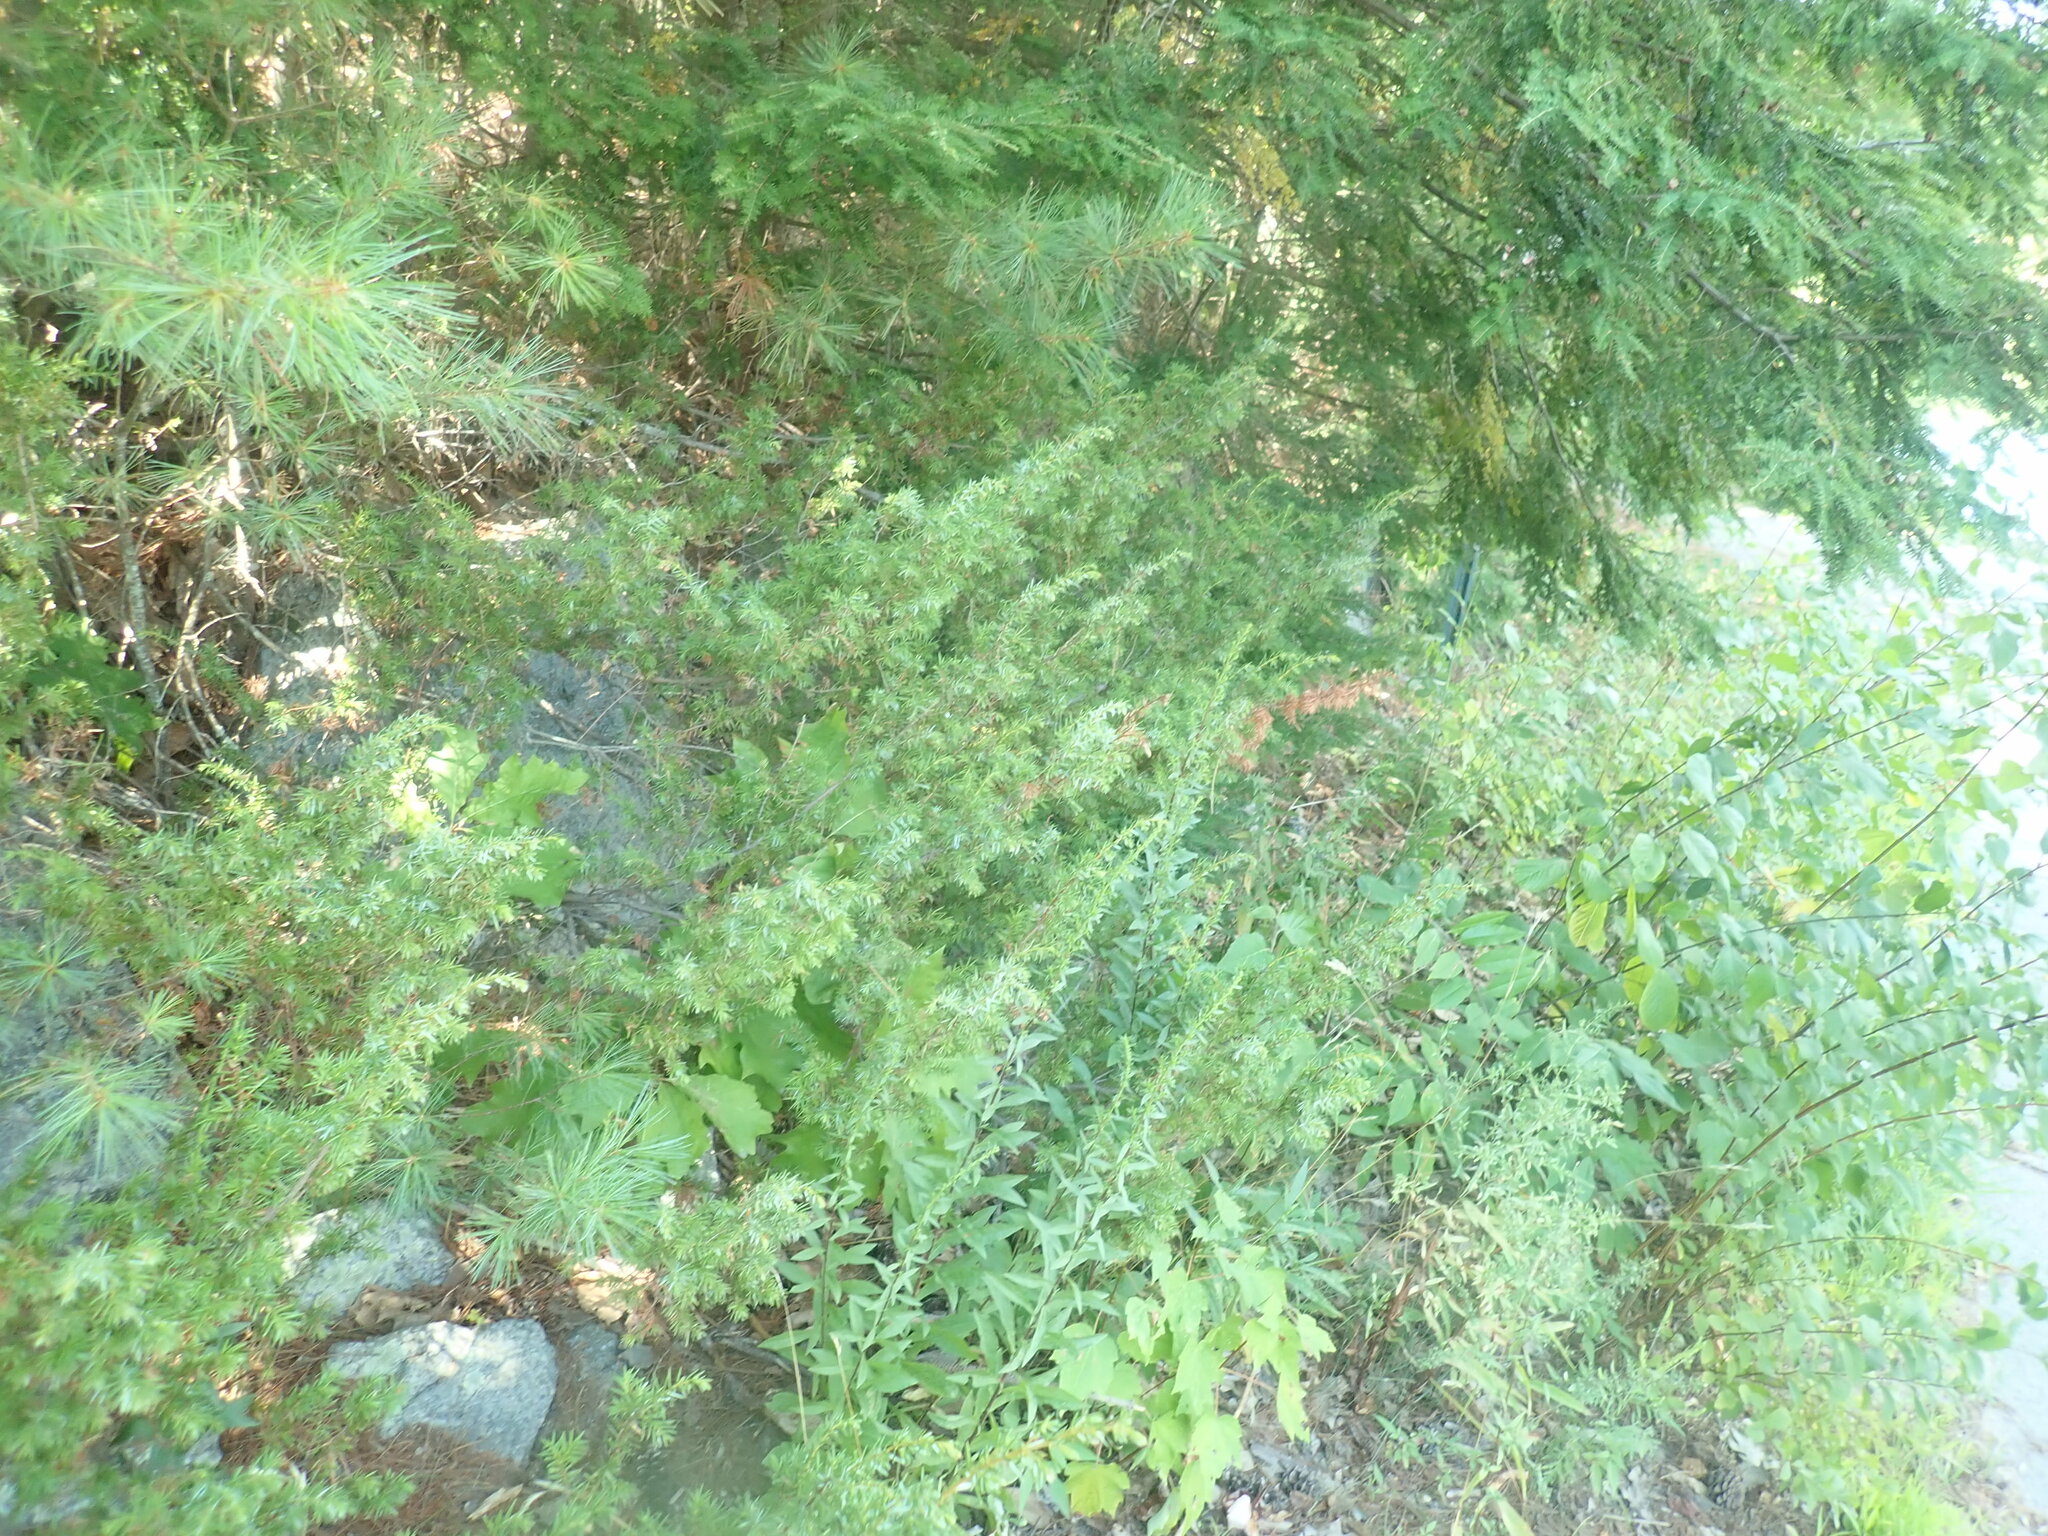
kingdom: Plantae
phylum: Tracheophyta
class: Pinopsida
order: Pinales
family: Cupressaceae
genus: Juniperus
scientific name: Juniperus communis
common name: Common juniper
